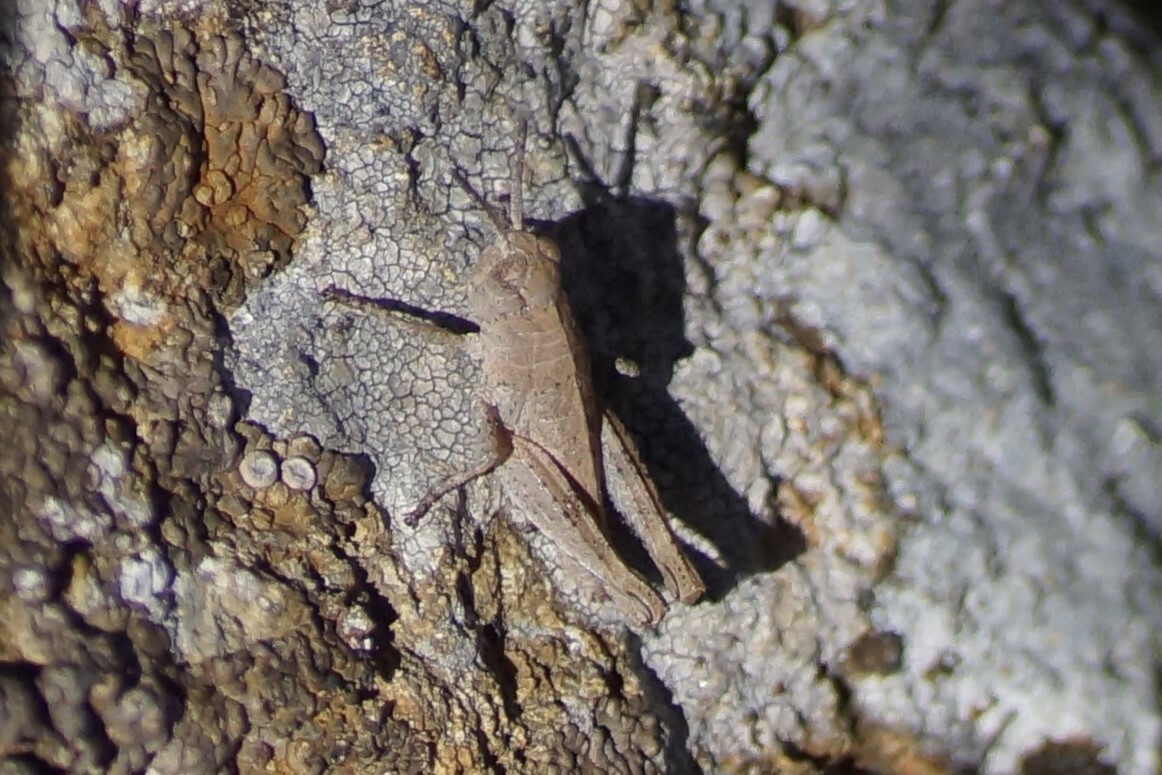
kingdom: Animalia
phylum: Arthropoda
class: Insecta
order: Orthoptera
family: Acrididae
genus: Tasmaniacris
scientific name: Tasmaniacris tasmaniensis
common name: Tasmanian grasshopper
